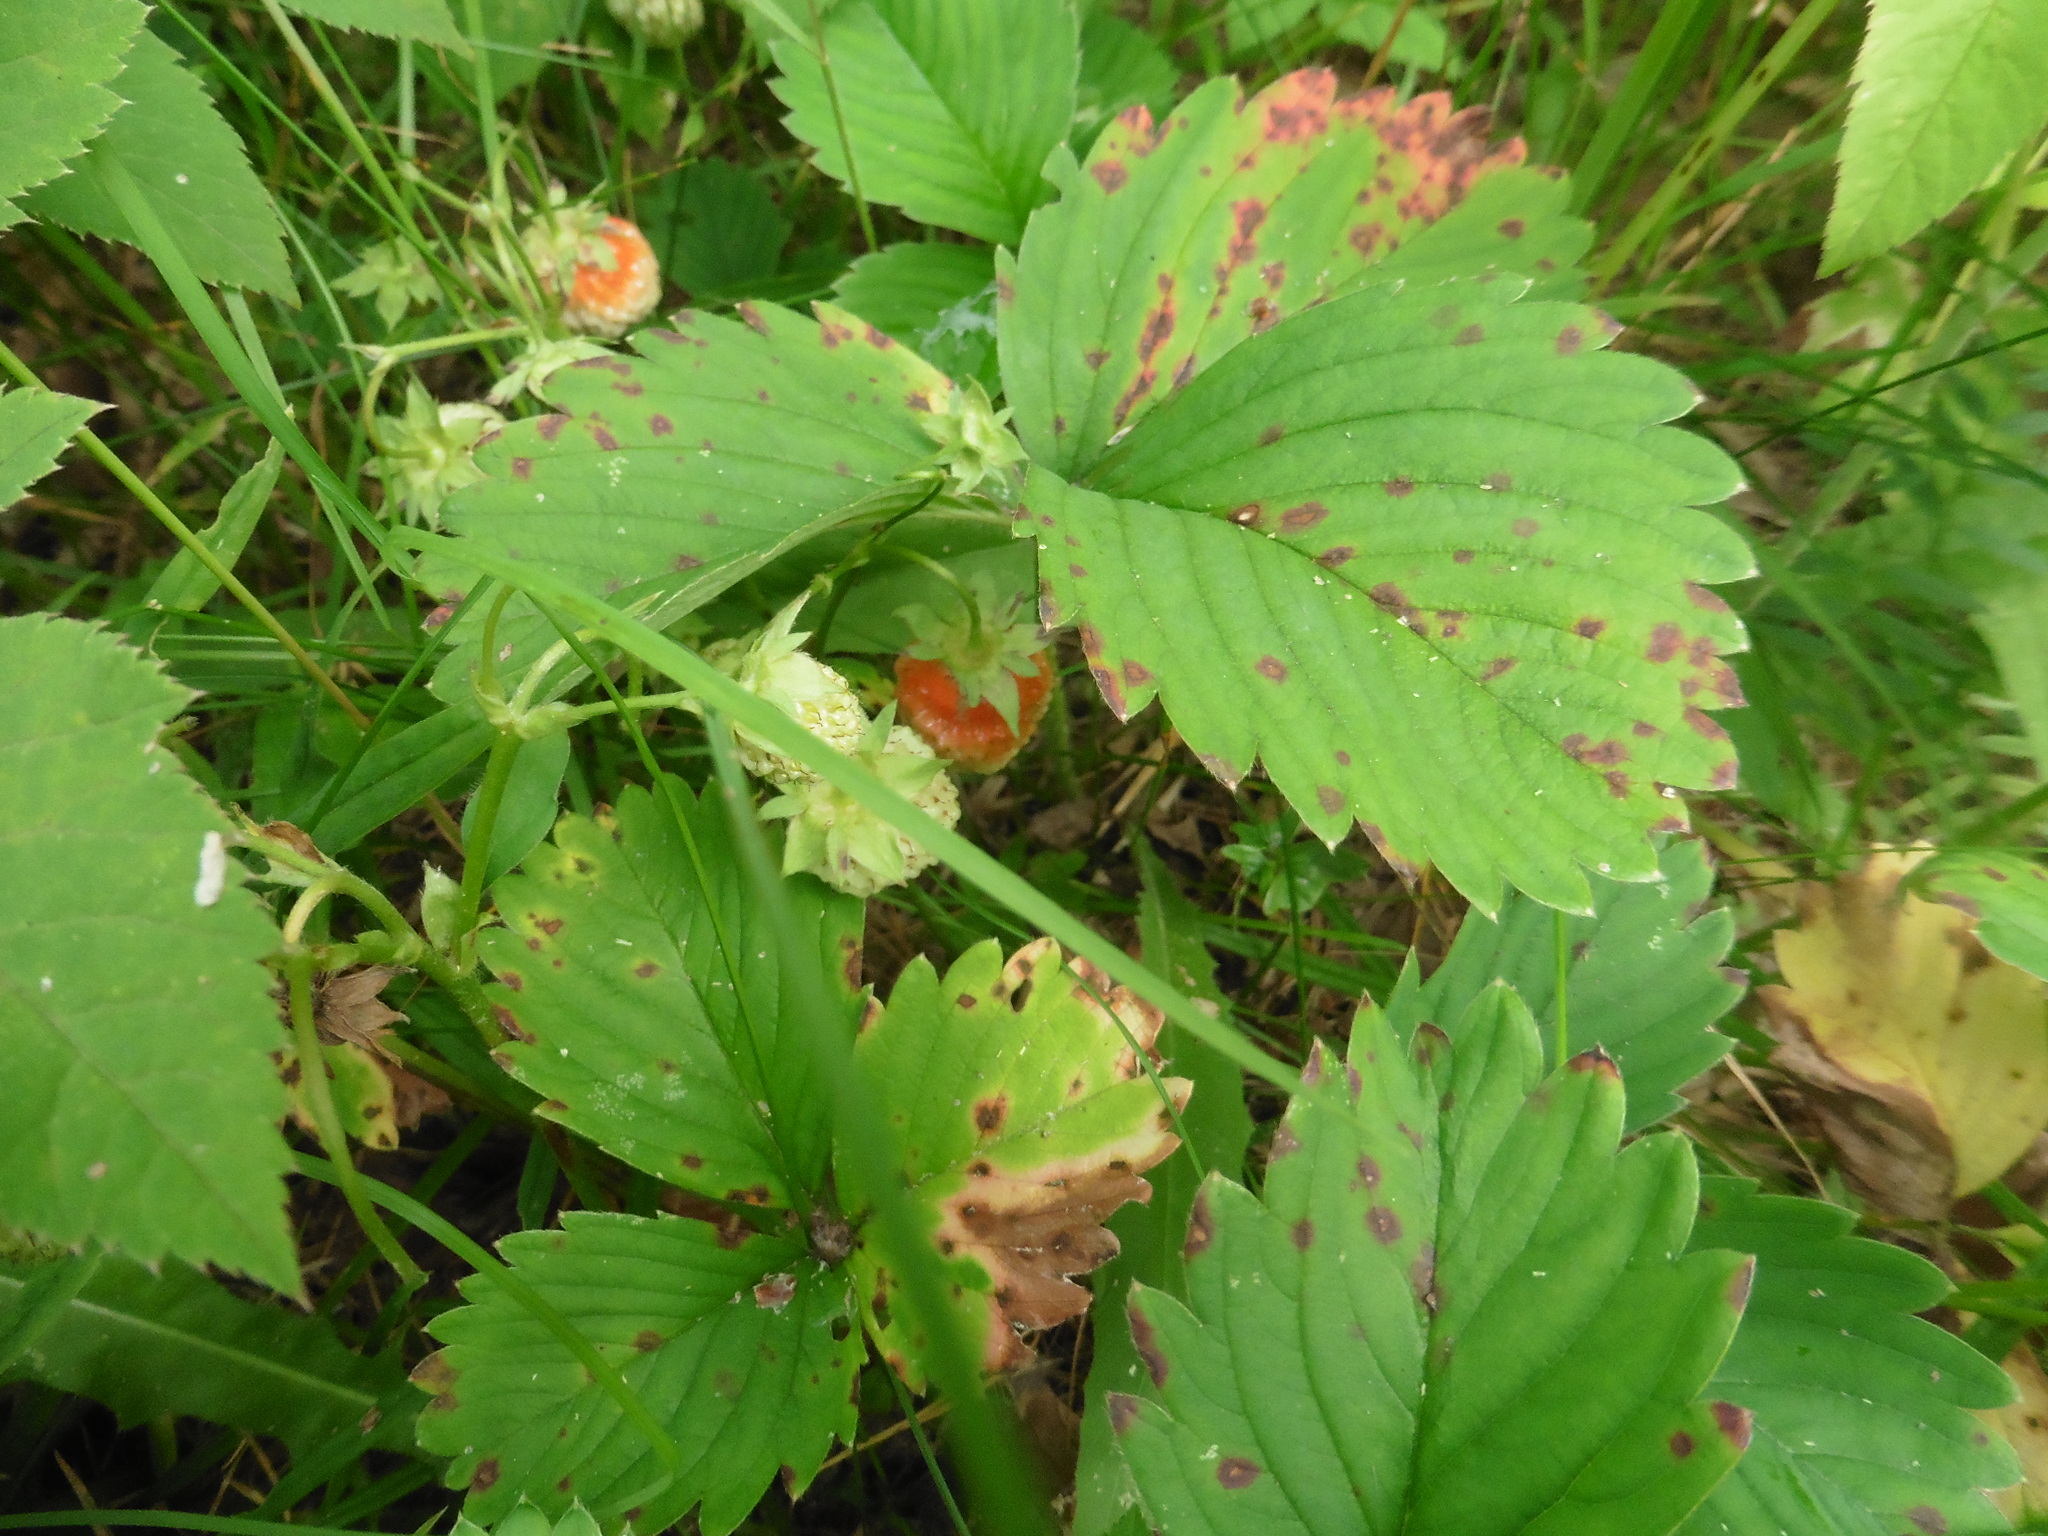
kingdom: Plantae
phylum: Tracheophyta
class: Magnoliopsida
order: Rosales
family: Rosaceae
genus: Fragaria
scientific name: Fragaria ananassa
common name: Garden strawberry
